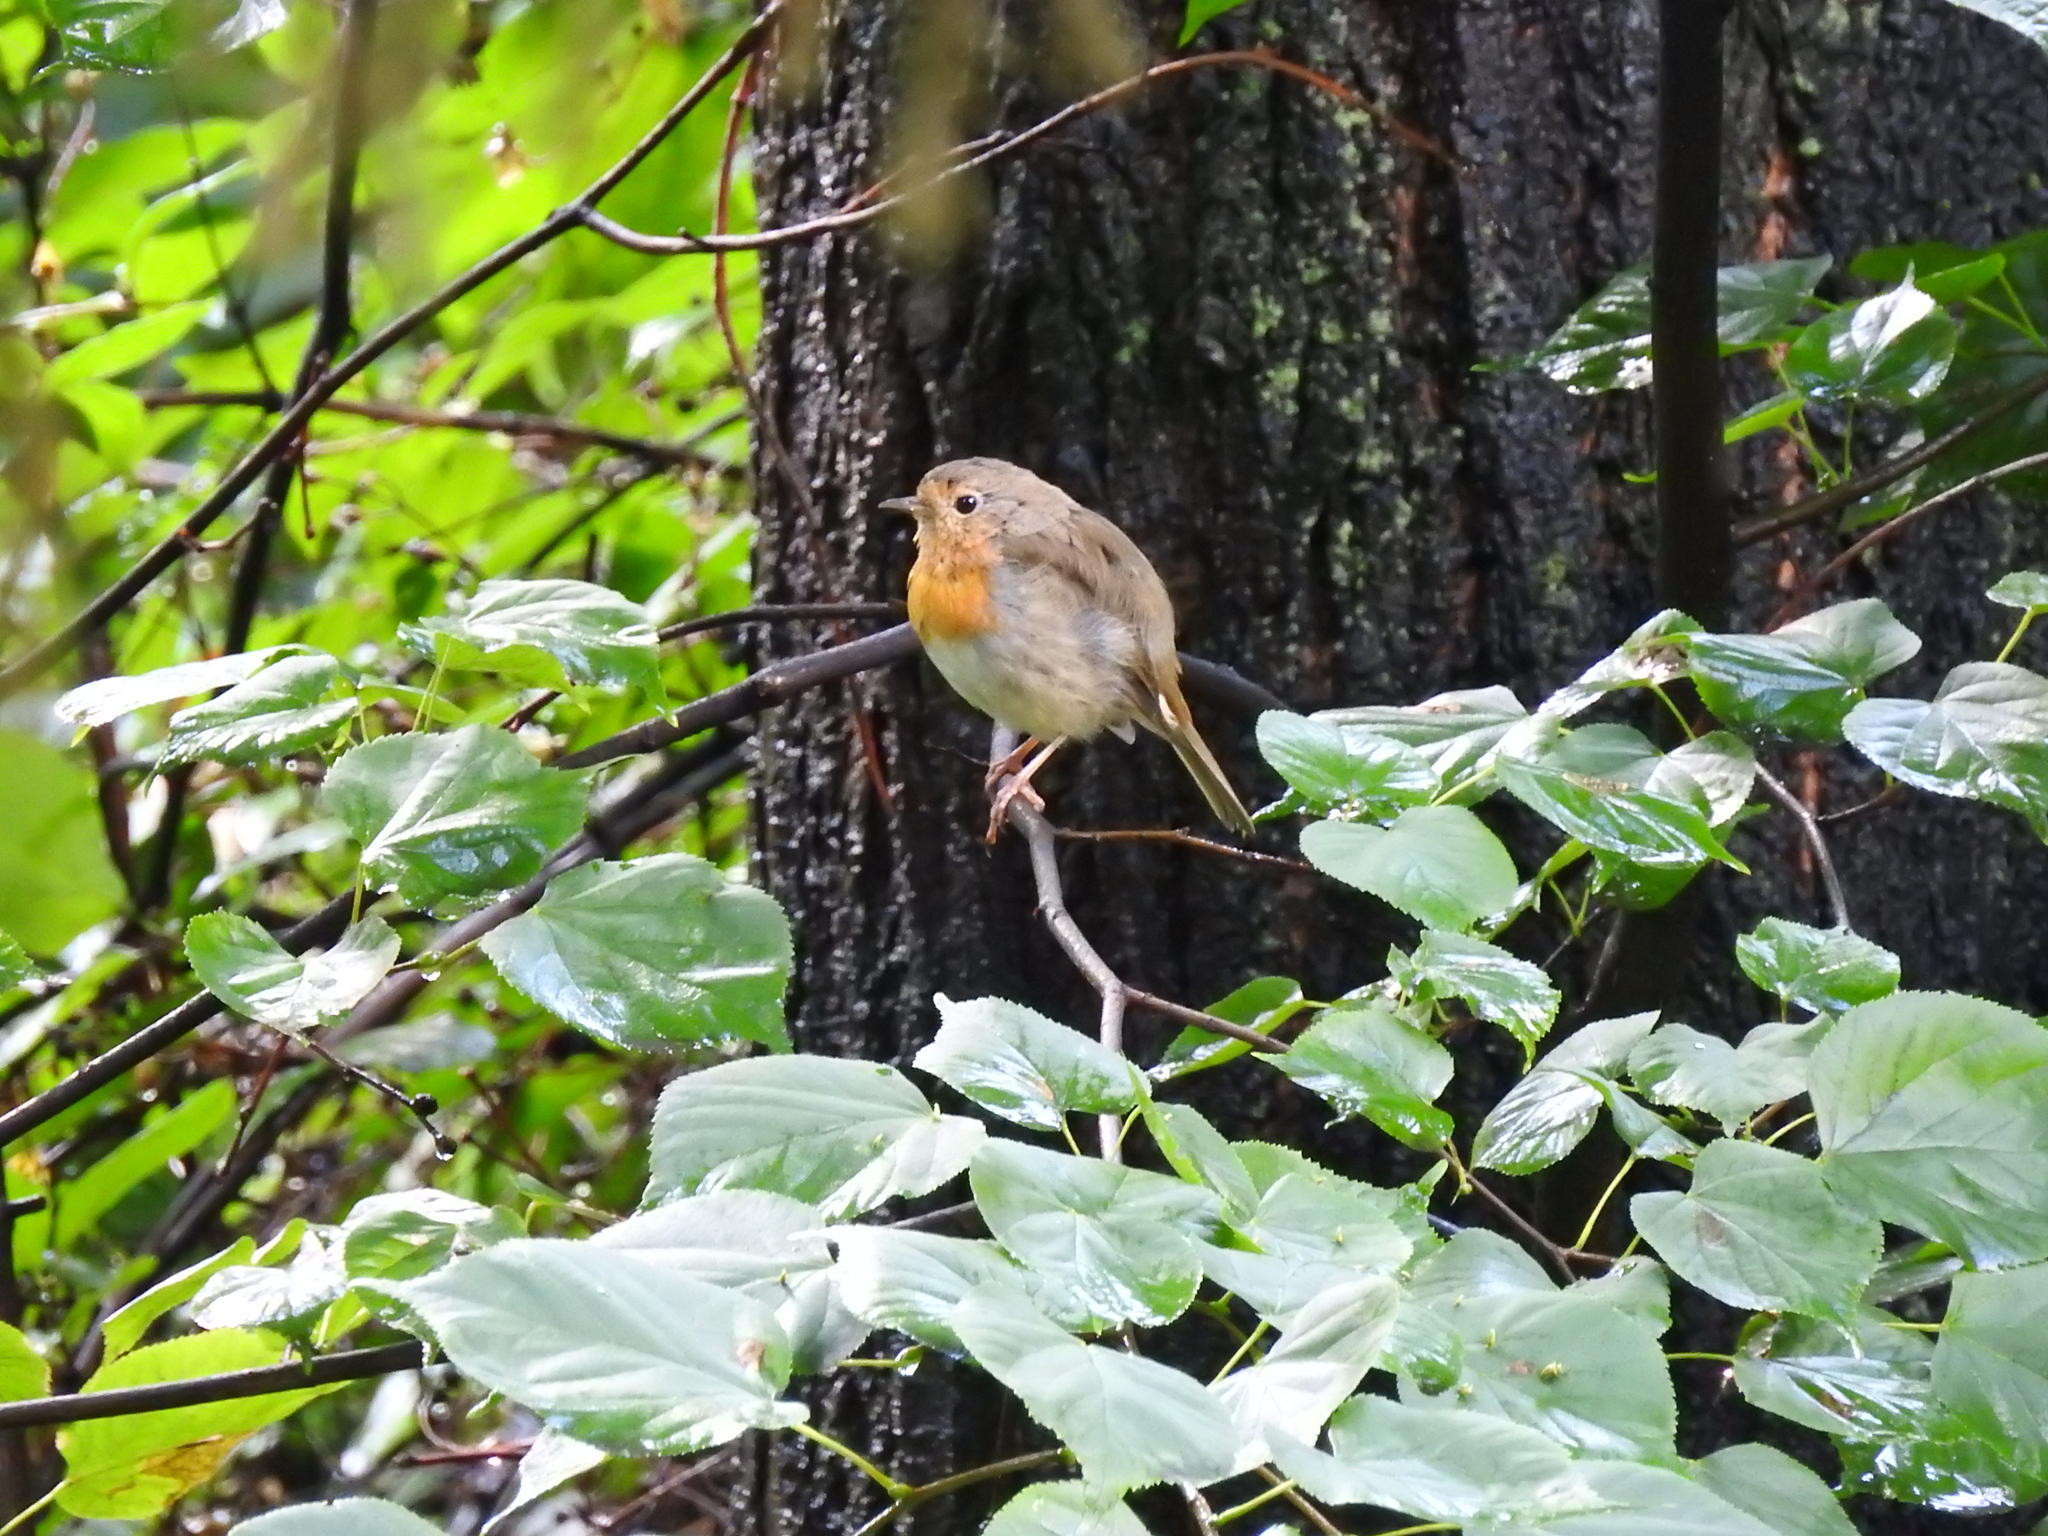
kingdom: Animalia
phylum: Chordata
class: Aves
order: Passeriformes
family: Muscicapidae
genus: Erithacus
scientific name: Erithacus rubecula
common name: European robin
